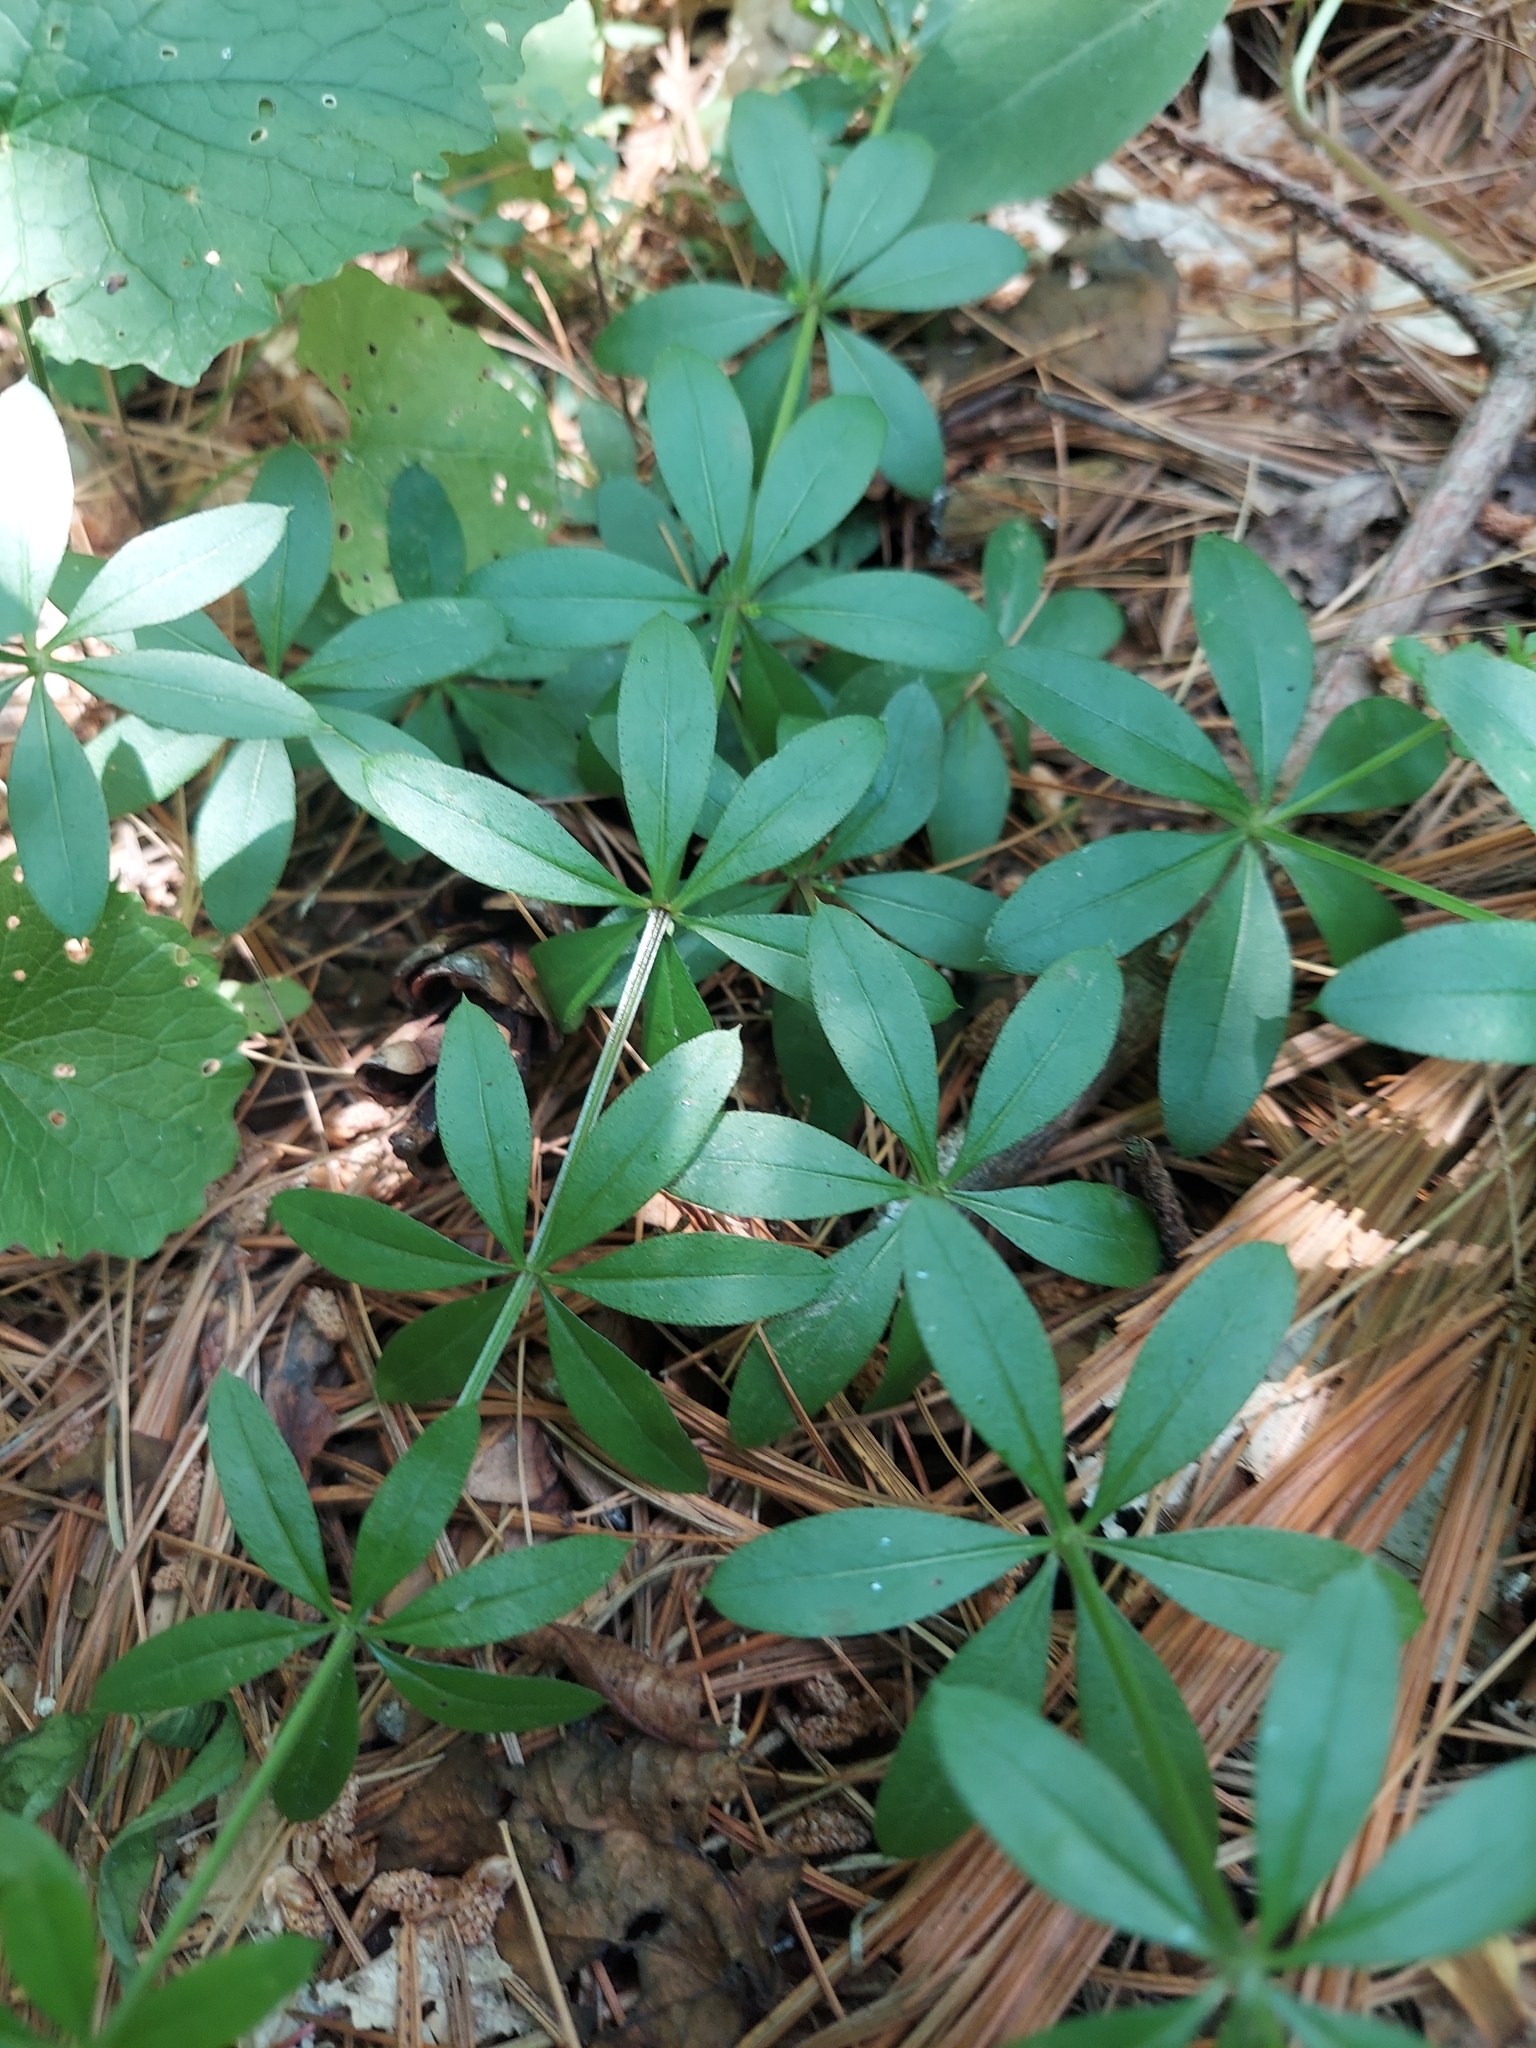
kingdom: Plantae
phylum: Tracheophyta
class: Magnoliopsida
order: Gentianales
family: Rubiaceae
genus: Galium
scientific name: Galium triflorum
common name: Fragrant bedstraw
